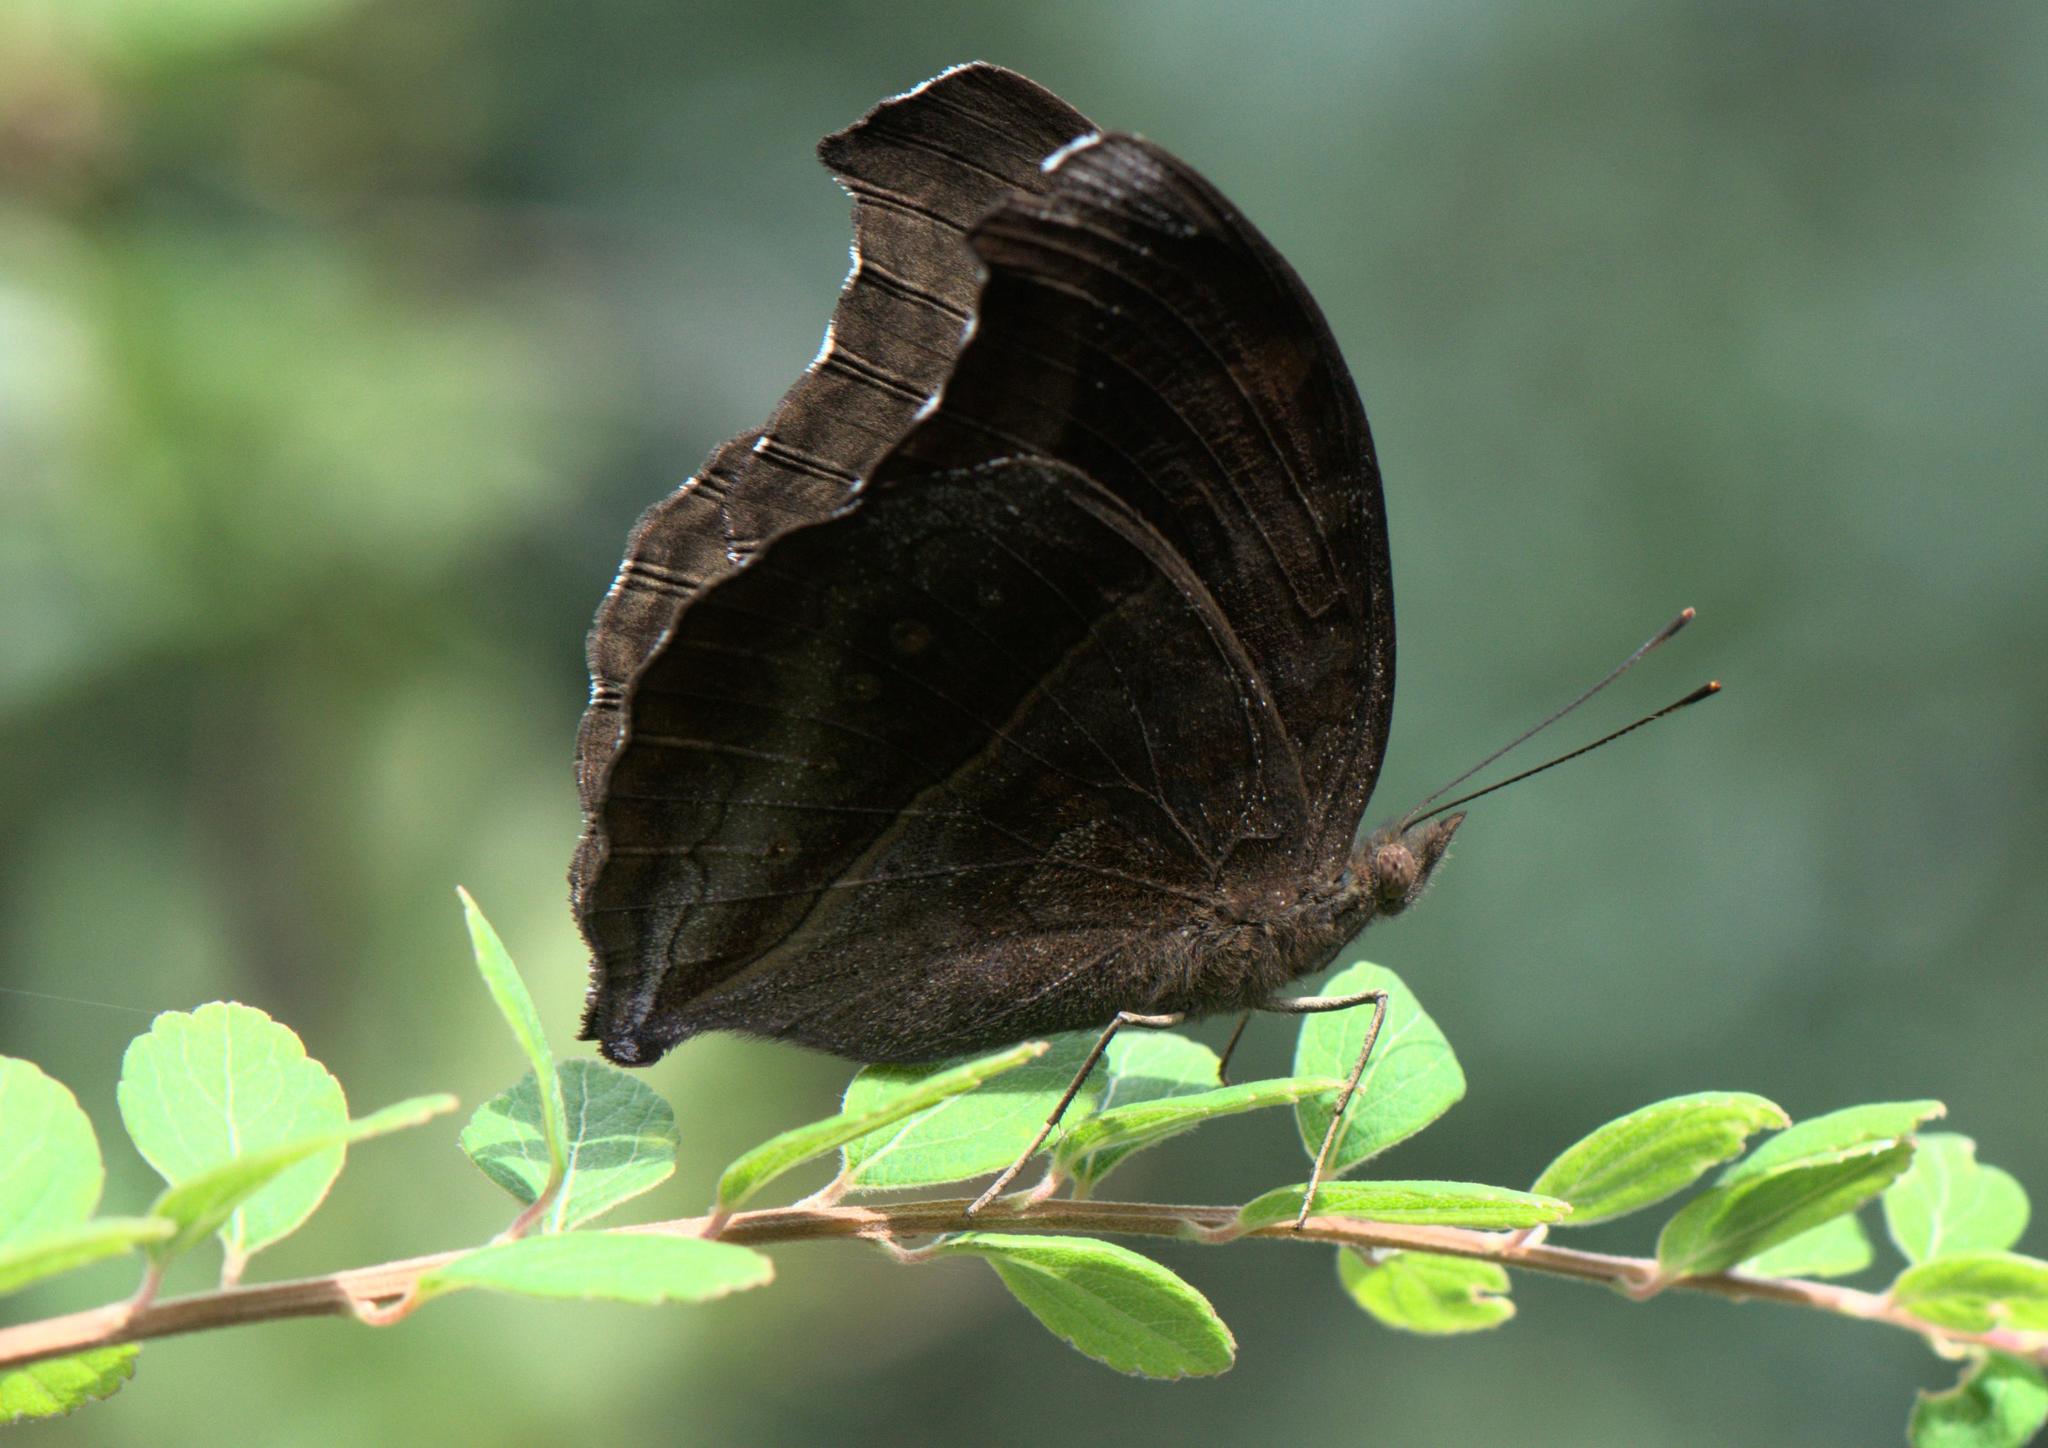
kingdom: Animalia
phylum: Arthropoda
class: Insecta
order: Lepidoptera
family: Nymphalidae
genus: Junonia
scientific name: Junonia iphita
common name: Chocolate pansy
